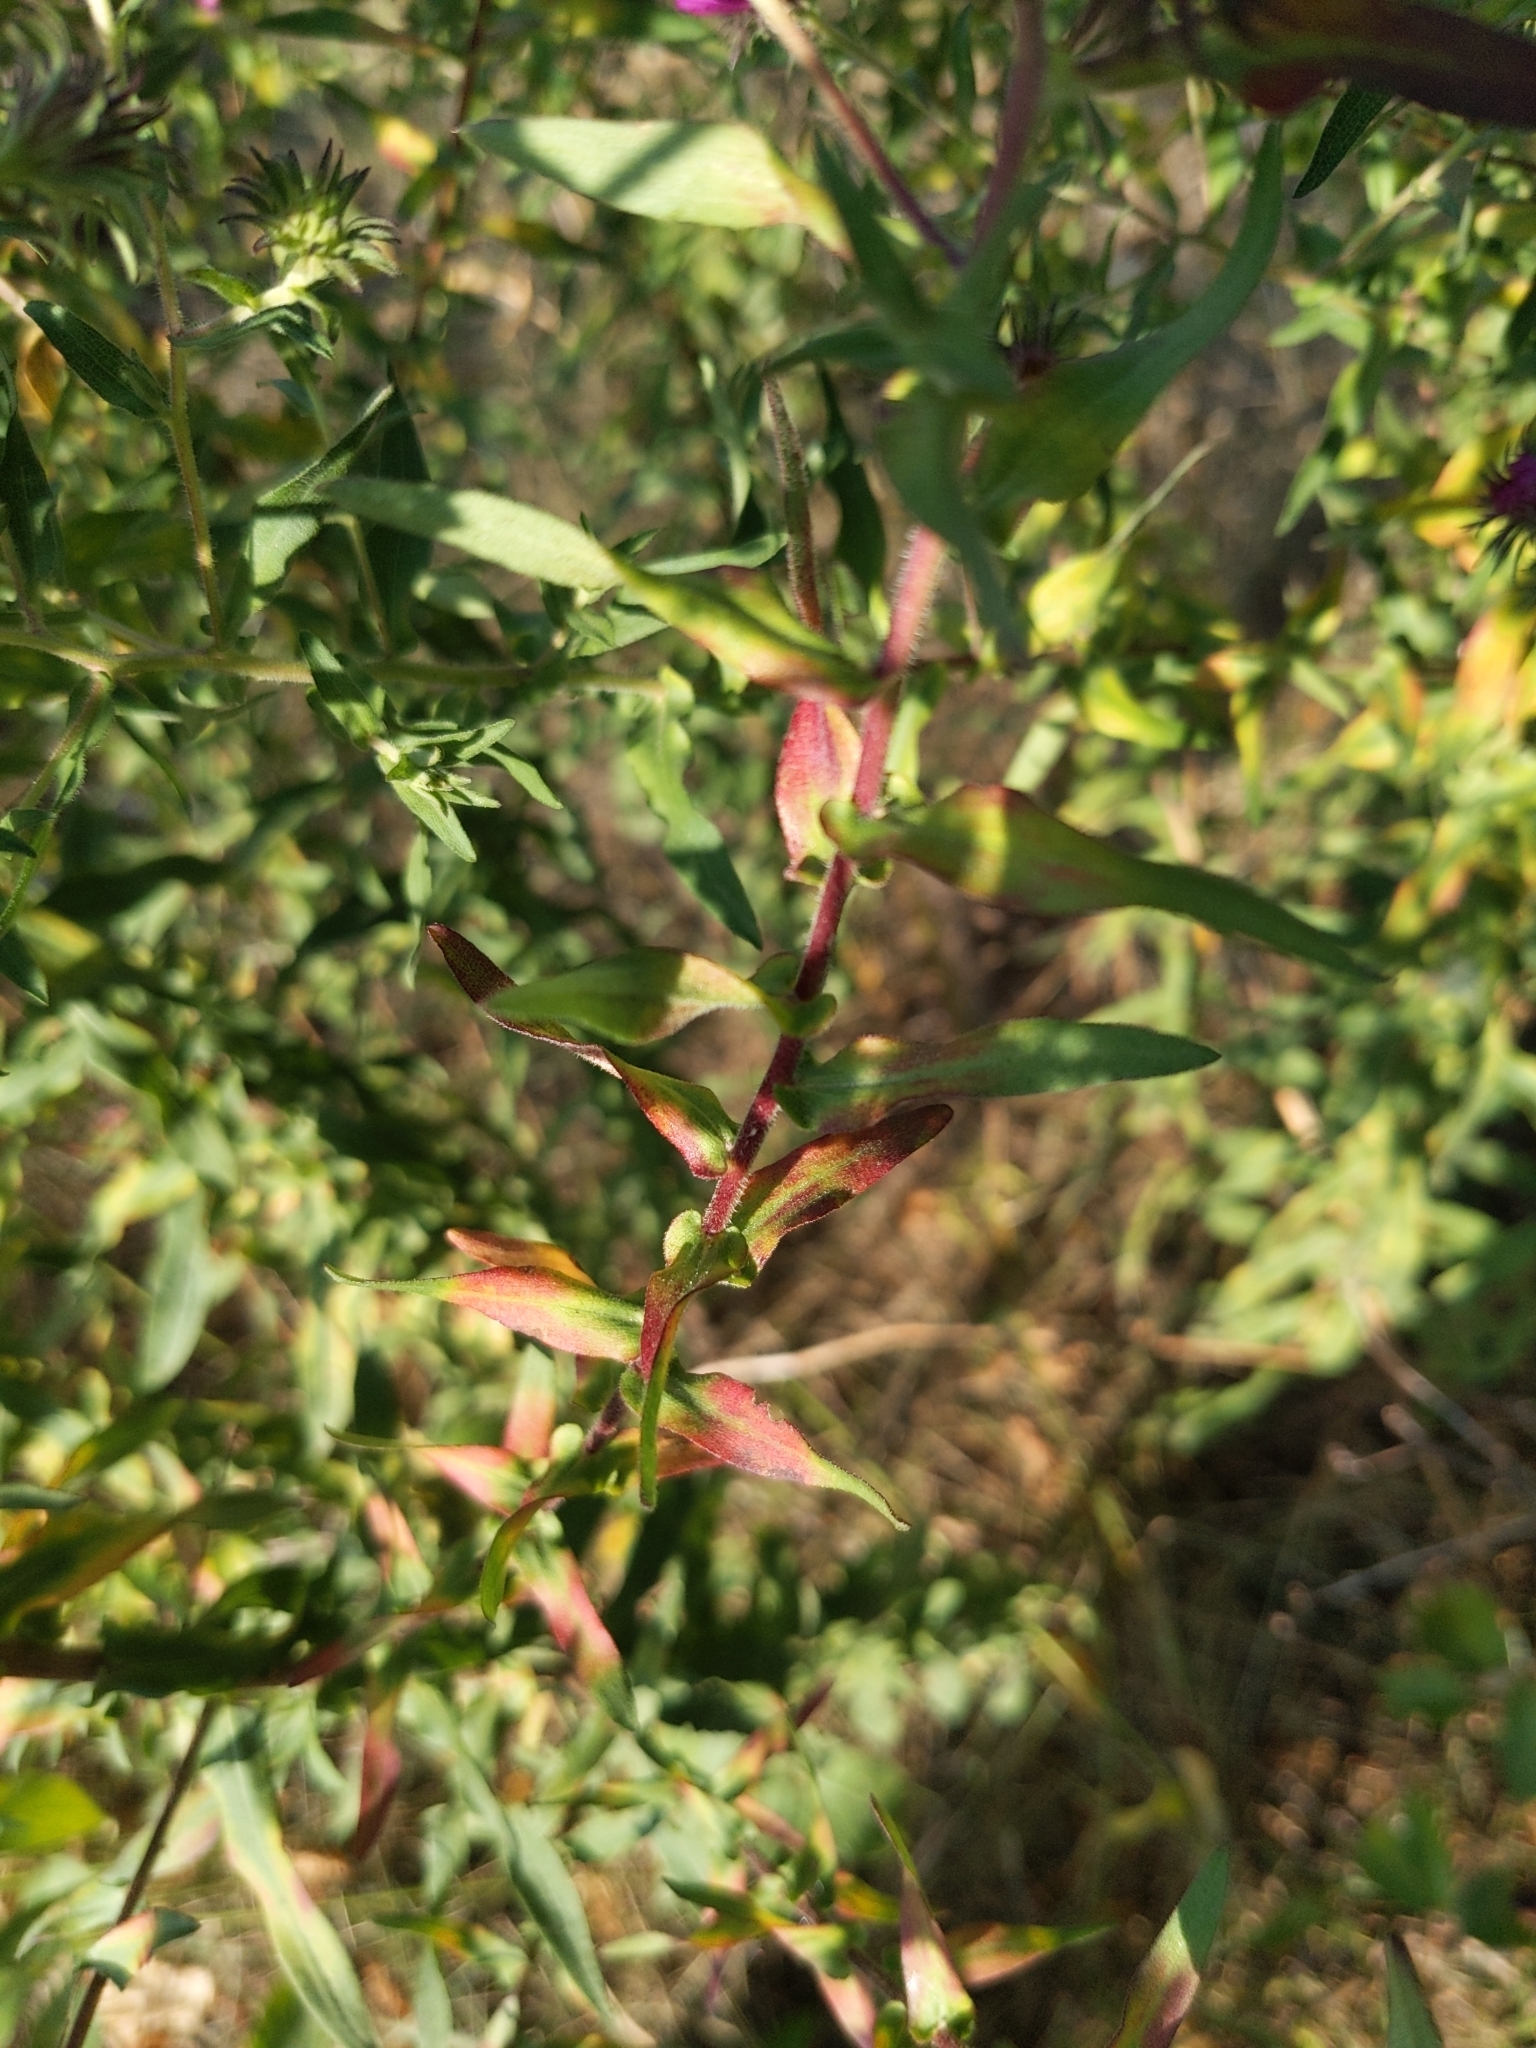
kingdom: Plantae
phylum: Tracheophyta
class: Magnoliopsida
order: Asterales
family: Asteraceae
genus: Symphyotrichum
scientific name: Symphyotrichum novae-angliae
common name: Michaelmas daisy
